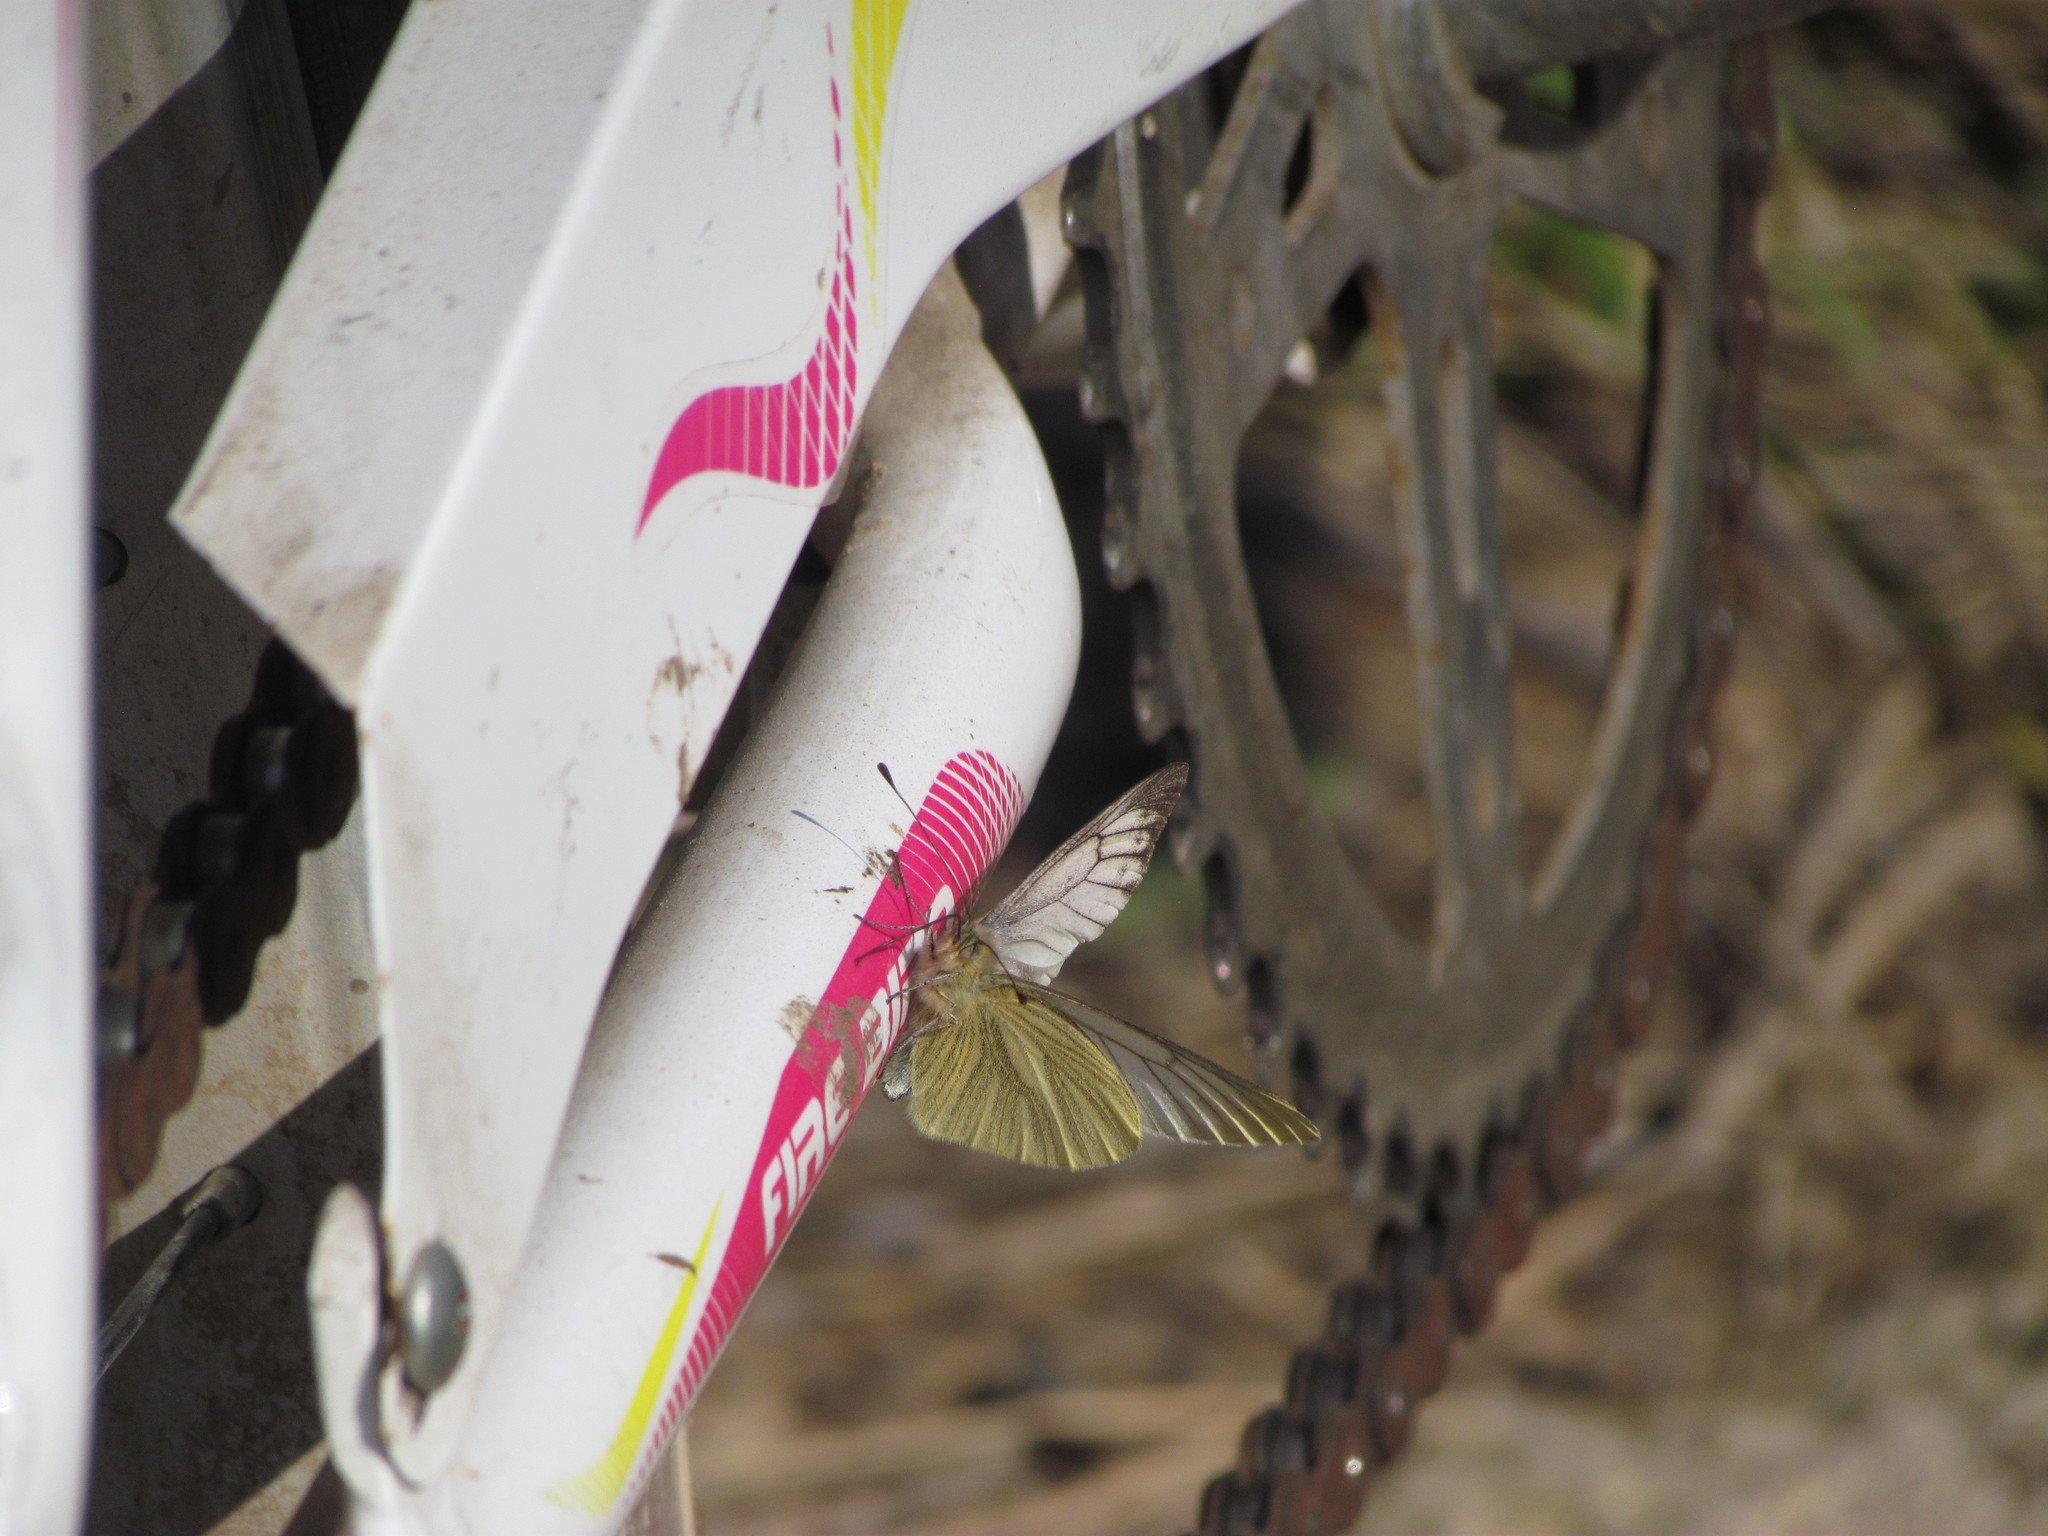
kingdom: Animalia
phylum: Arthropoda
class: Insecta
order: Lepidoptera
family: Pieridae
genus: Theochila
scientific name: Theochila maenacte
